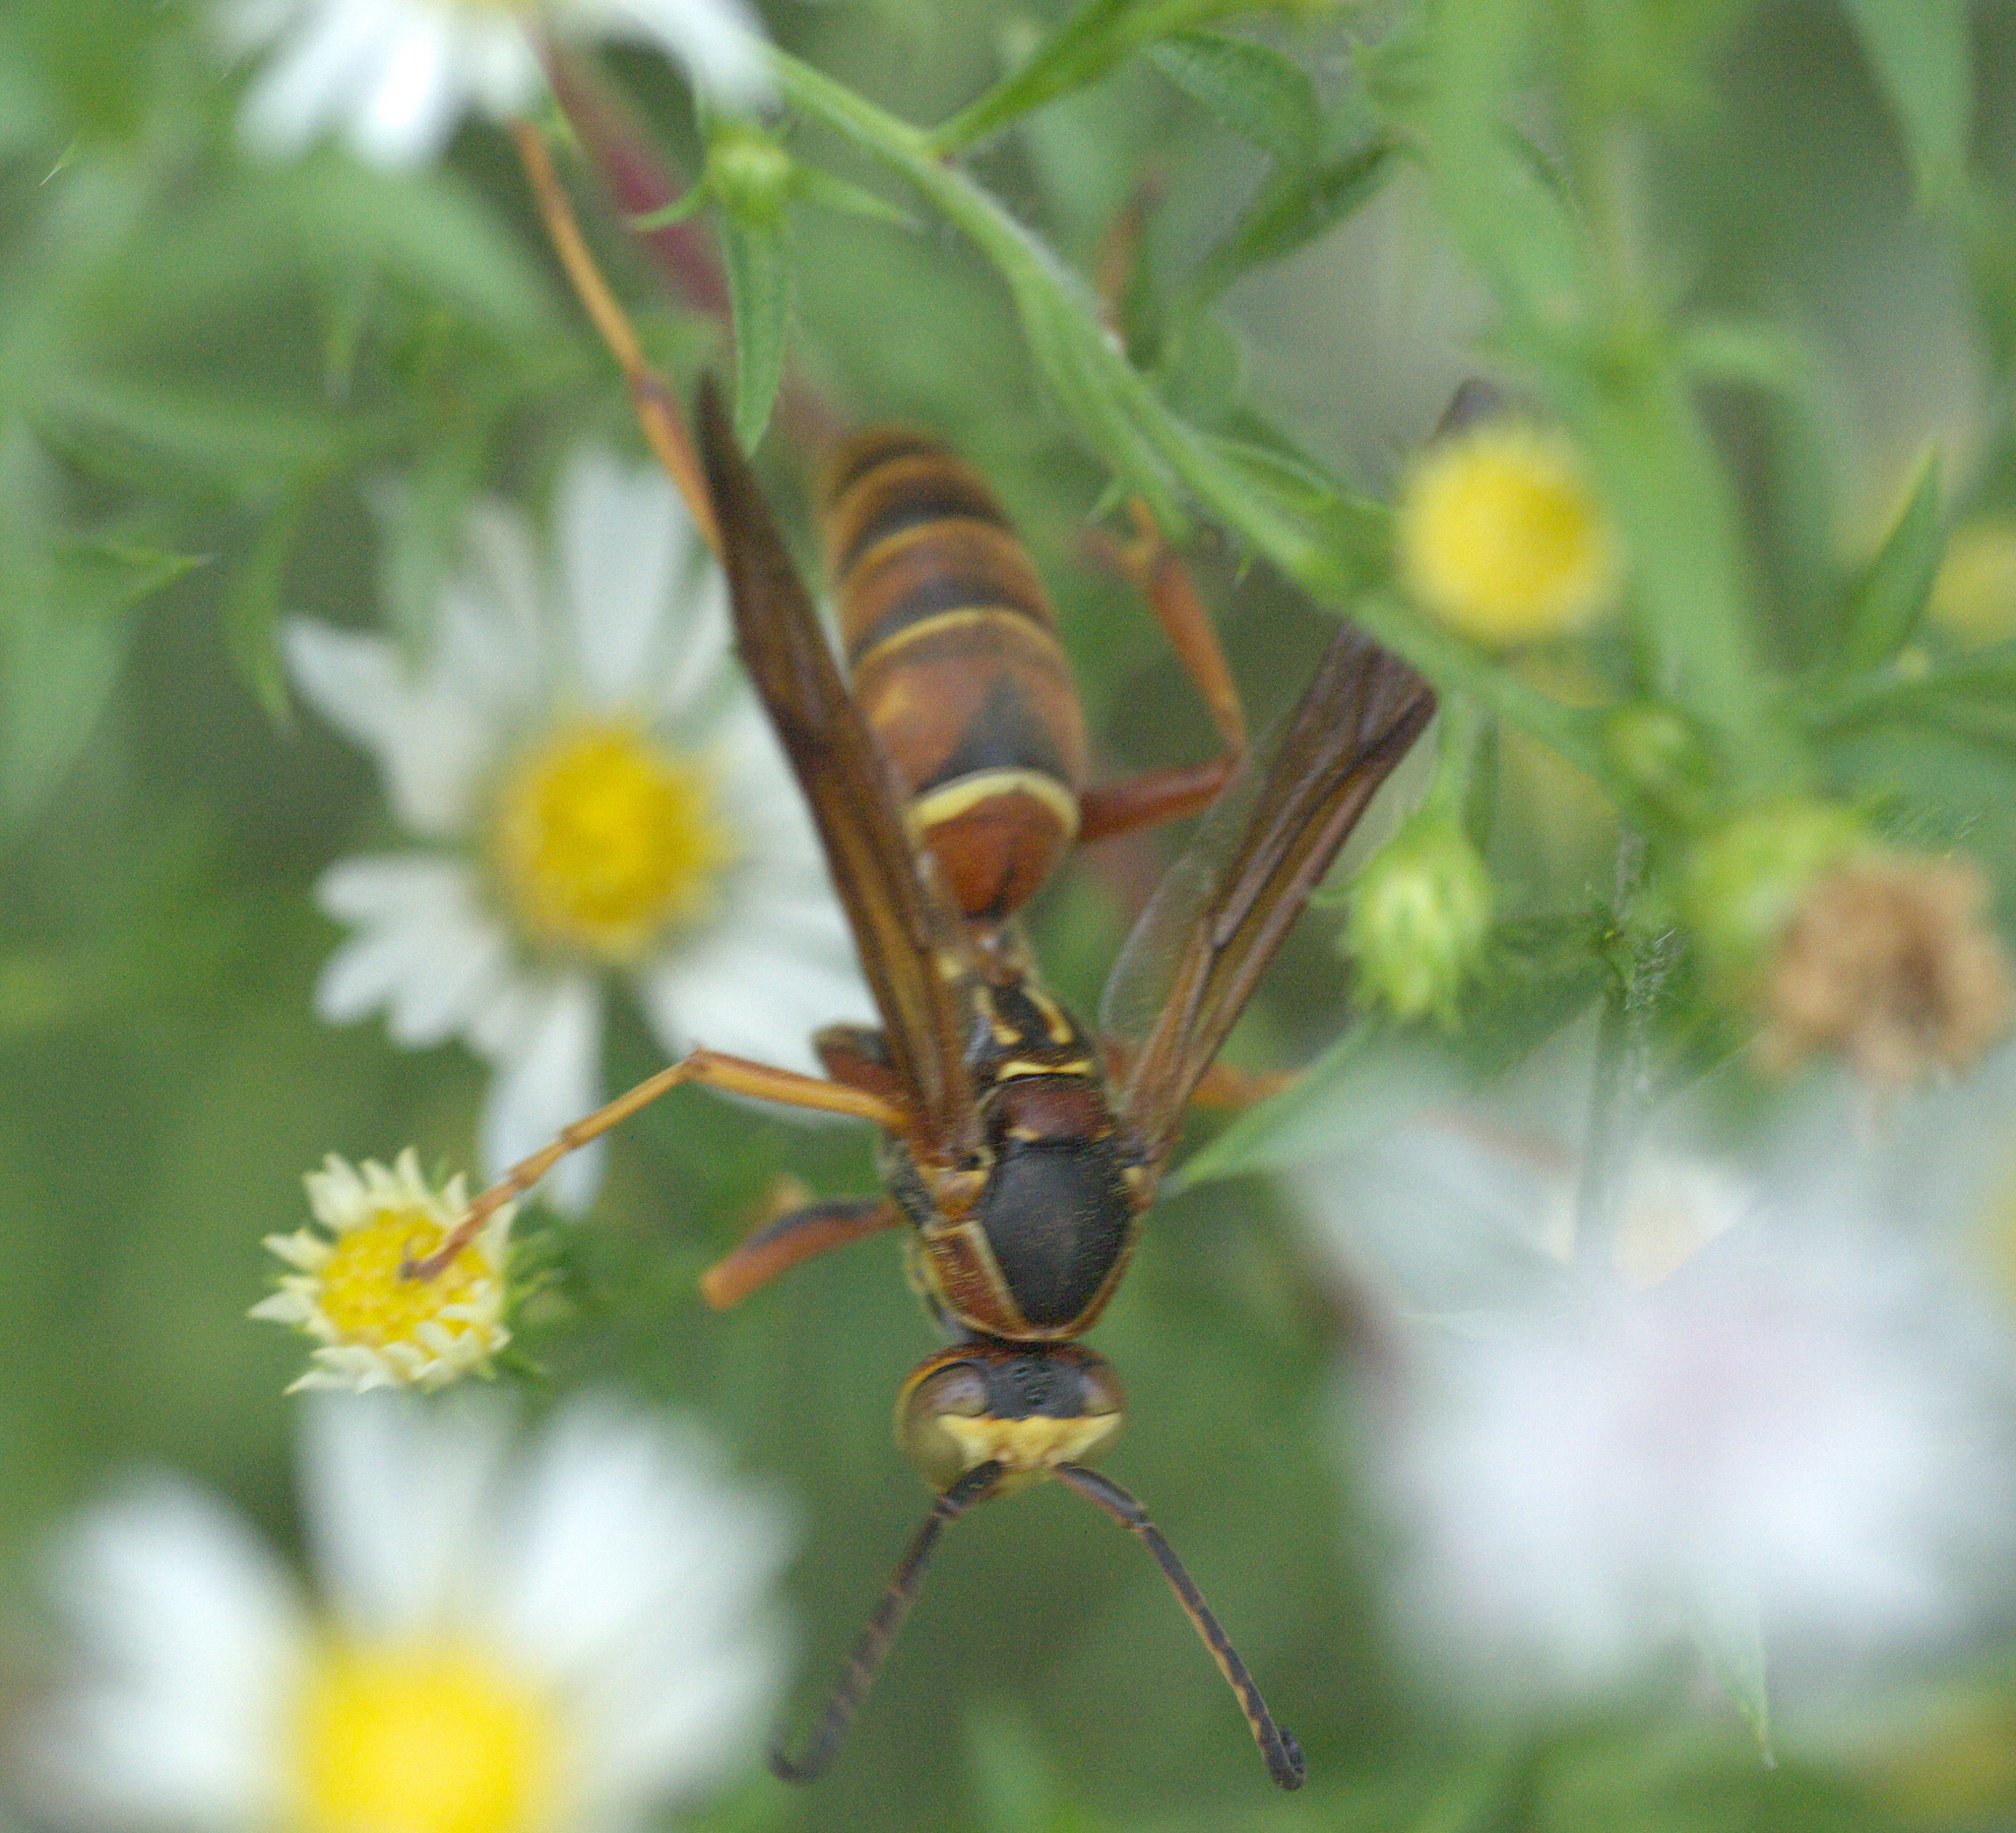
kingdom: Animalia
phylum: Arthropoda
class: Insecta
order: Hymenoptera
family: Eumenidae
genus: Polistes
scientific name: Polistes fuscatus
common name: Dark paper wasp
